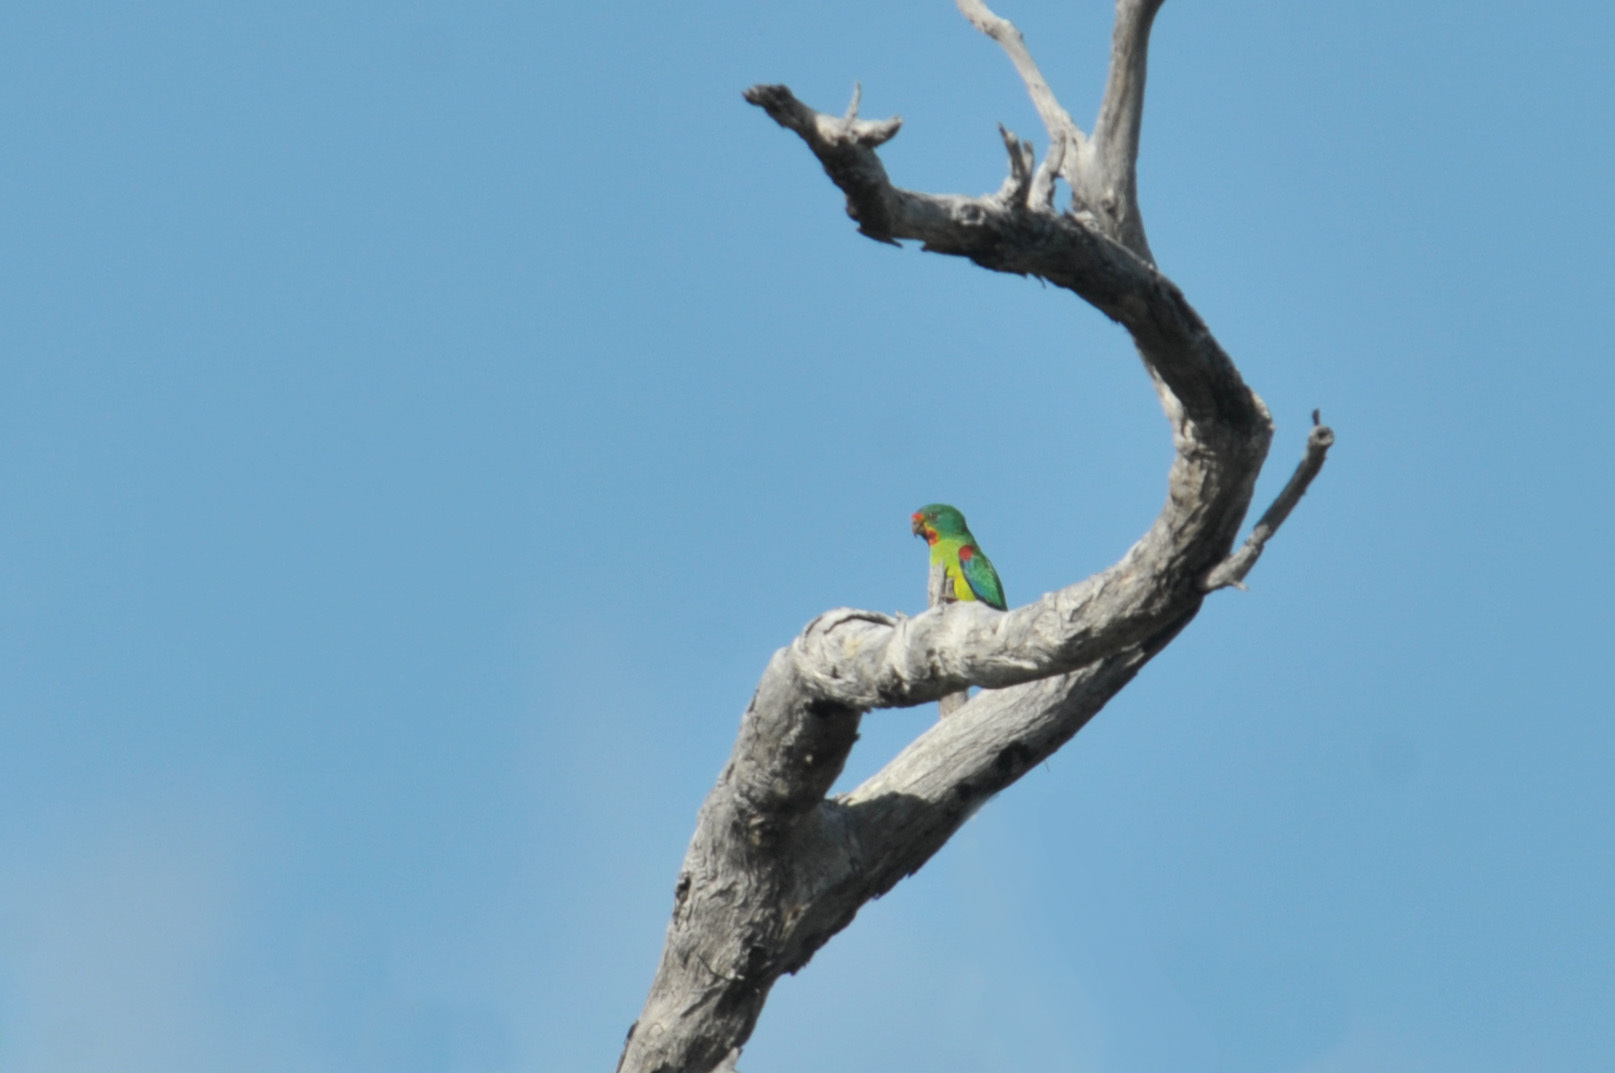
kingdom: Animalia
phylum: Chordata
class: Aves
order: Psittaciformes
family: Psittacidae
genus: Lathamus
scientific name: Lathamus discolor
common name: Swift parrot
